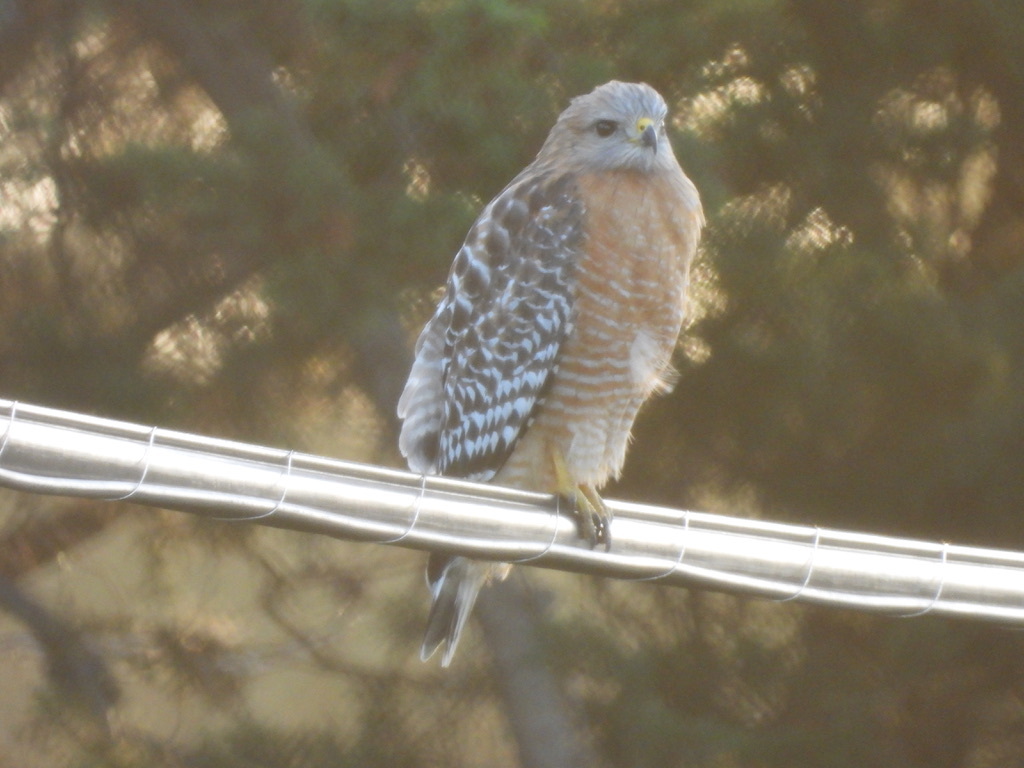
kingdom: Animalia
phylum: Chordata
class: Aves
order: Accipitriformes
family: Accipitridae
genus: Buteo
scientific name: Buteo lineatus
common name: Red-shouldered hawk
